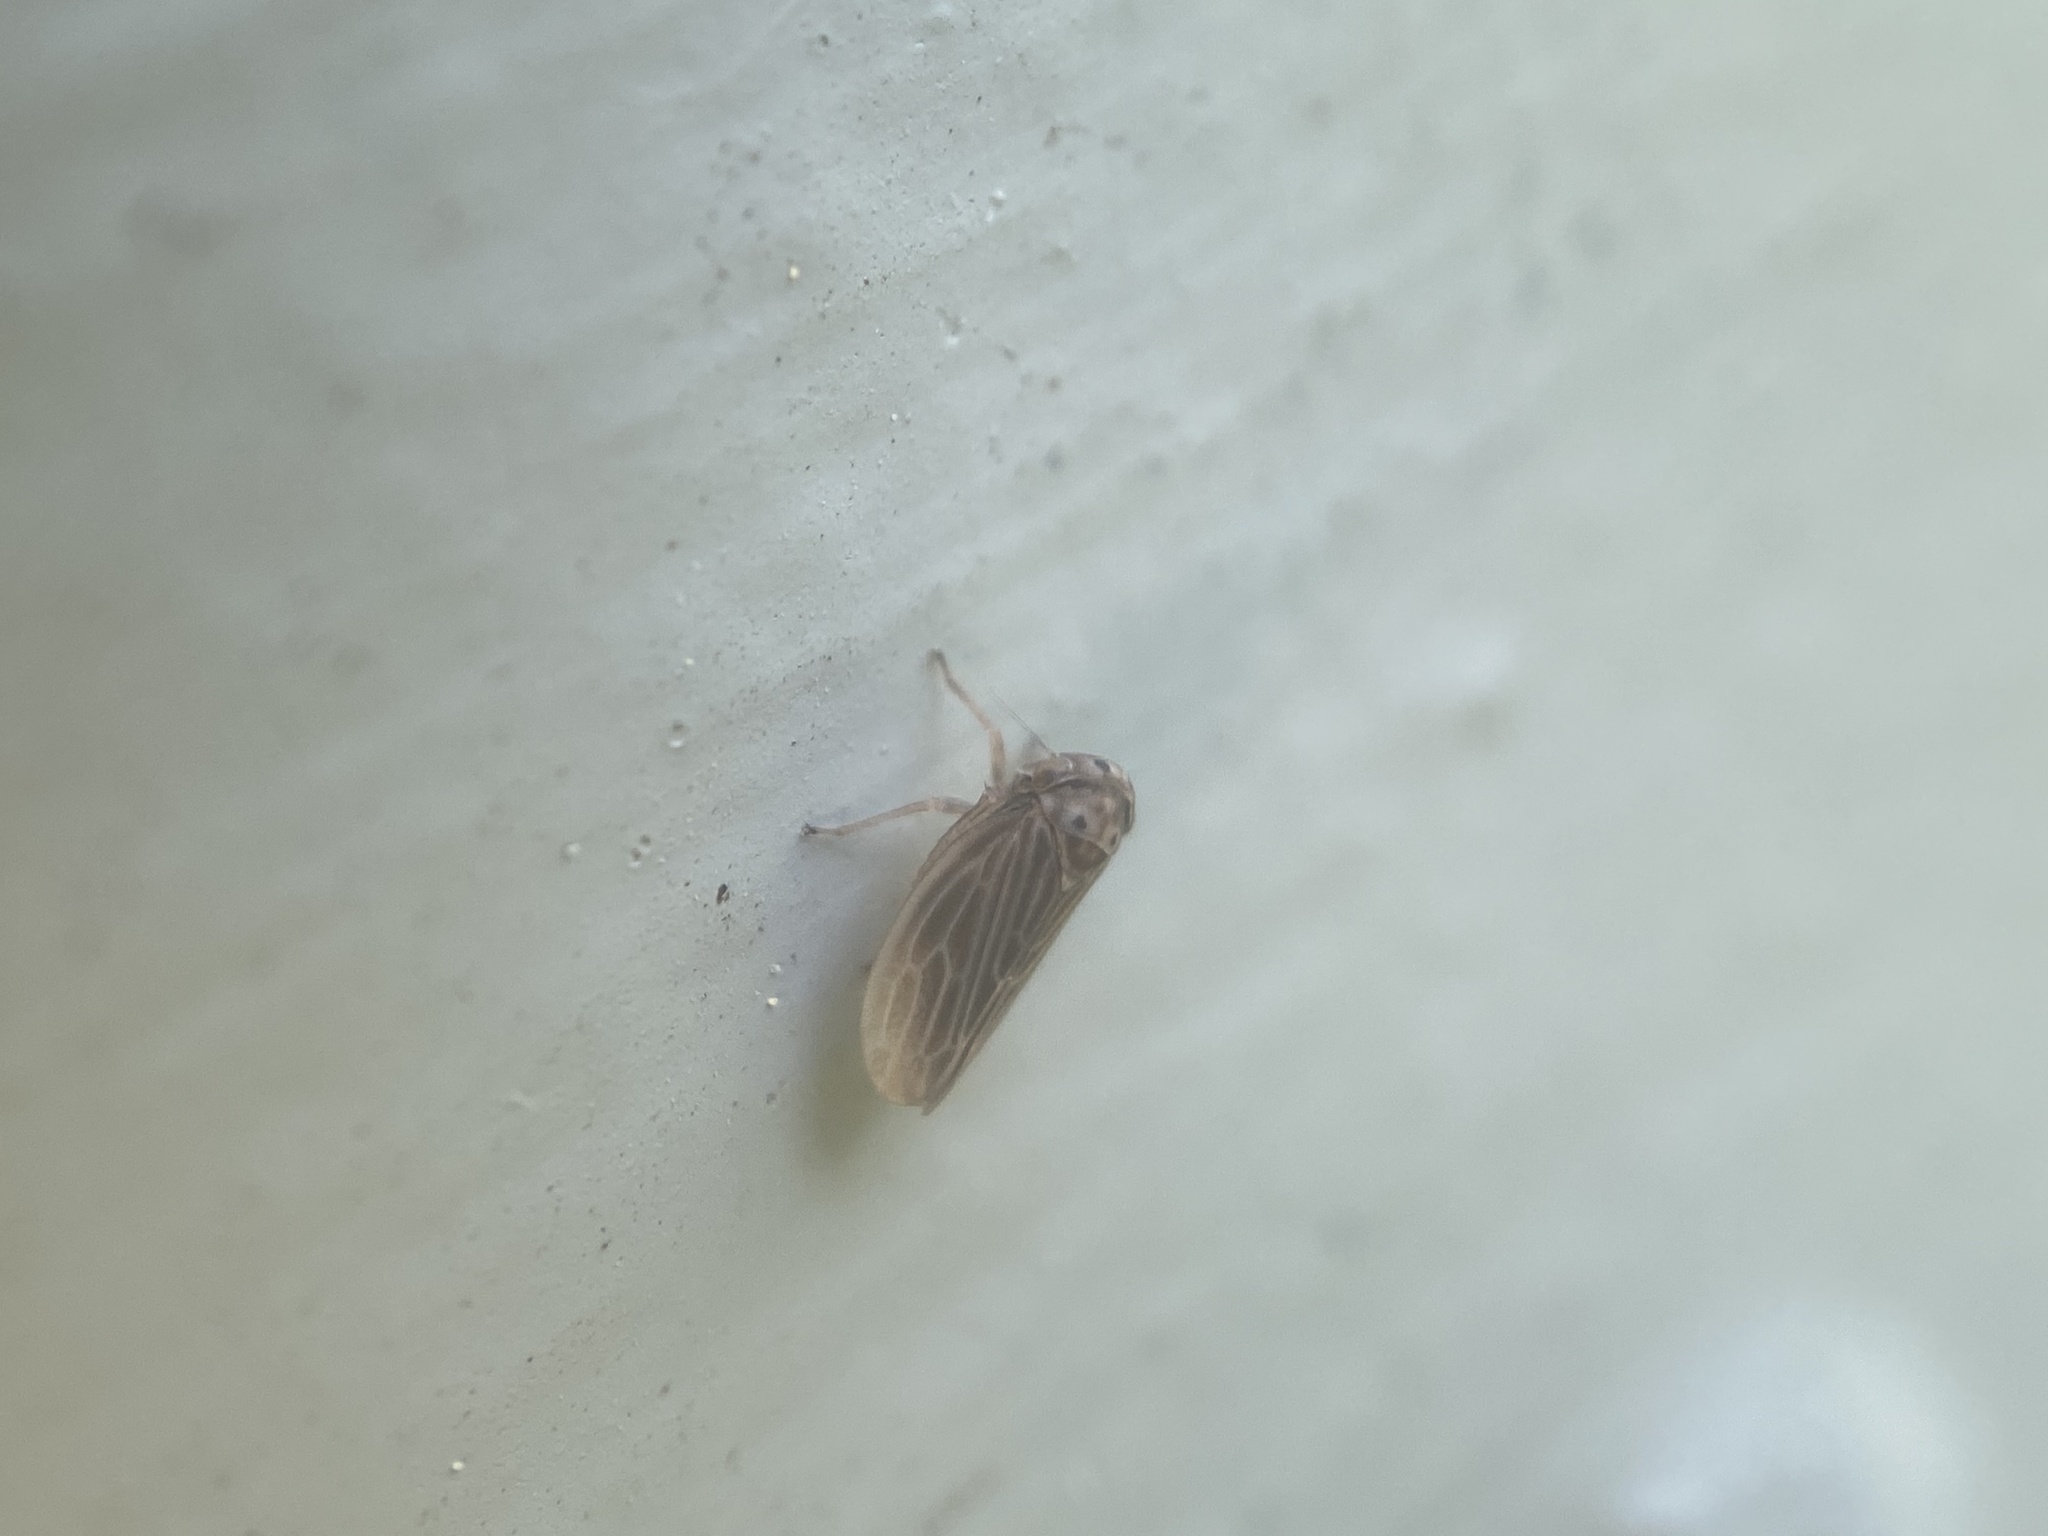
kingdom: Animalia
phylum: Arthropoda
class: Insecta
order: Hemiptera
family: Cicadellidae
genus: Agalliota
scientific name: Agalliota quadripunctata
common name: The four-spotted clover leafhopper
